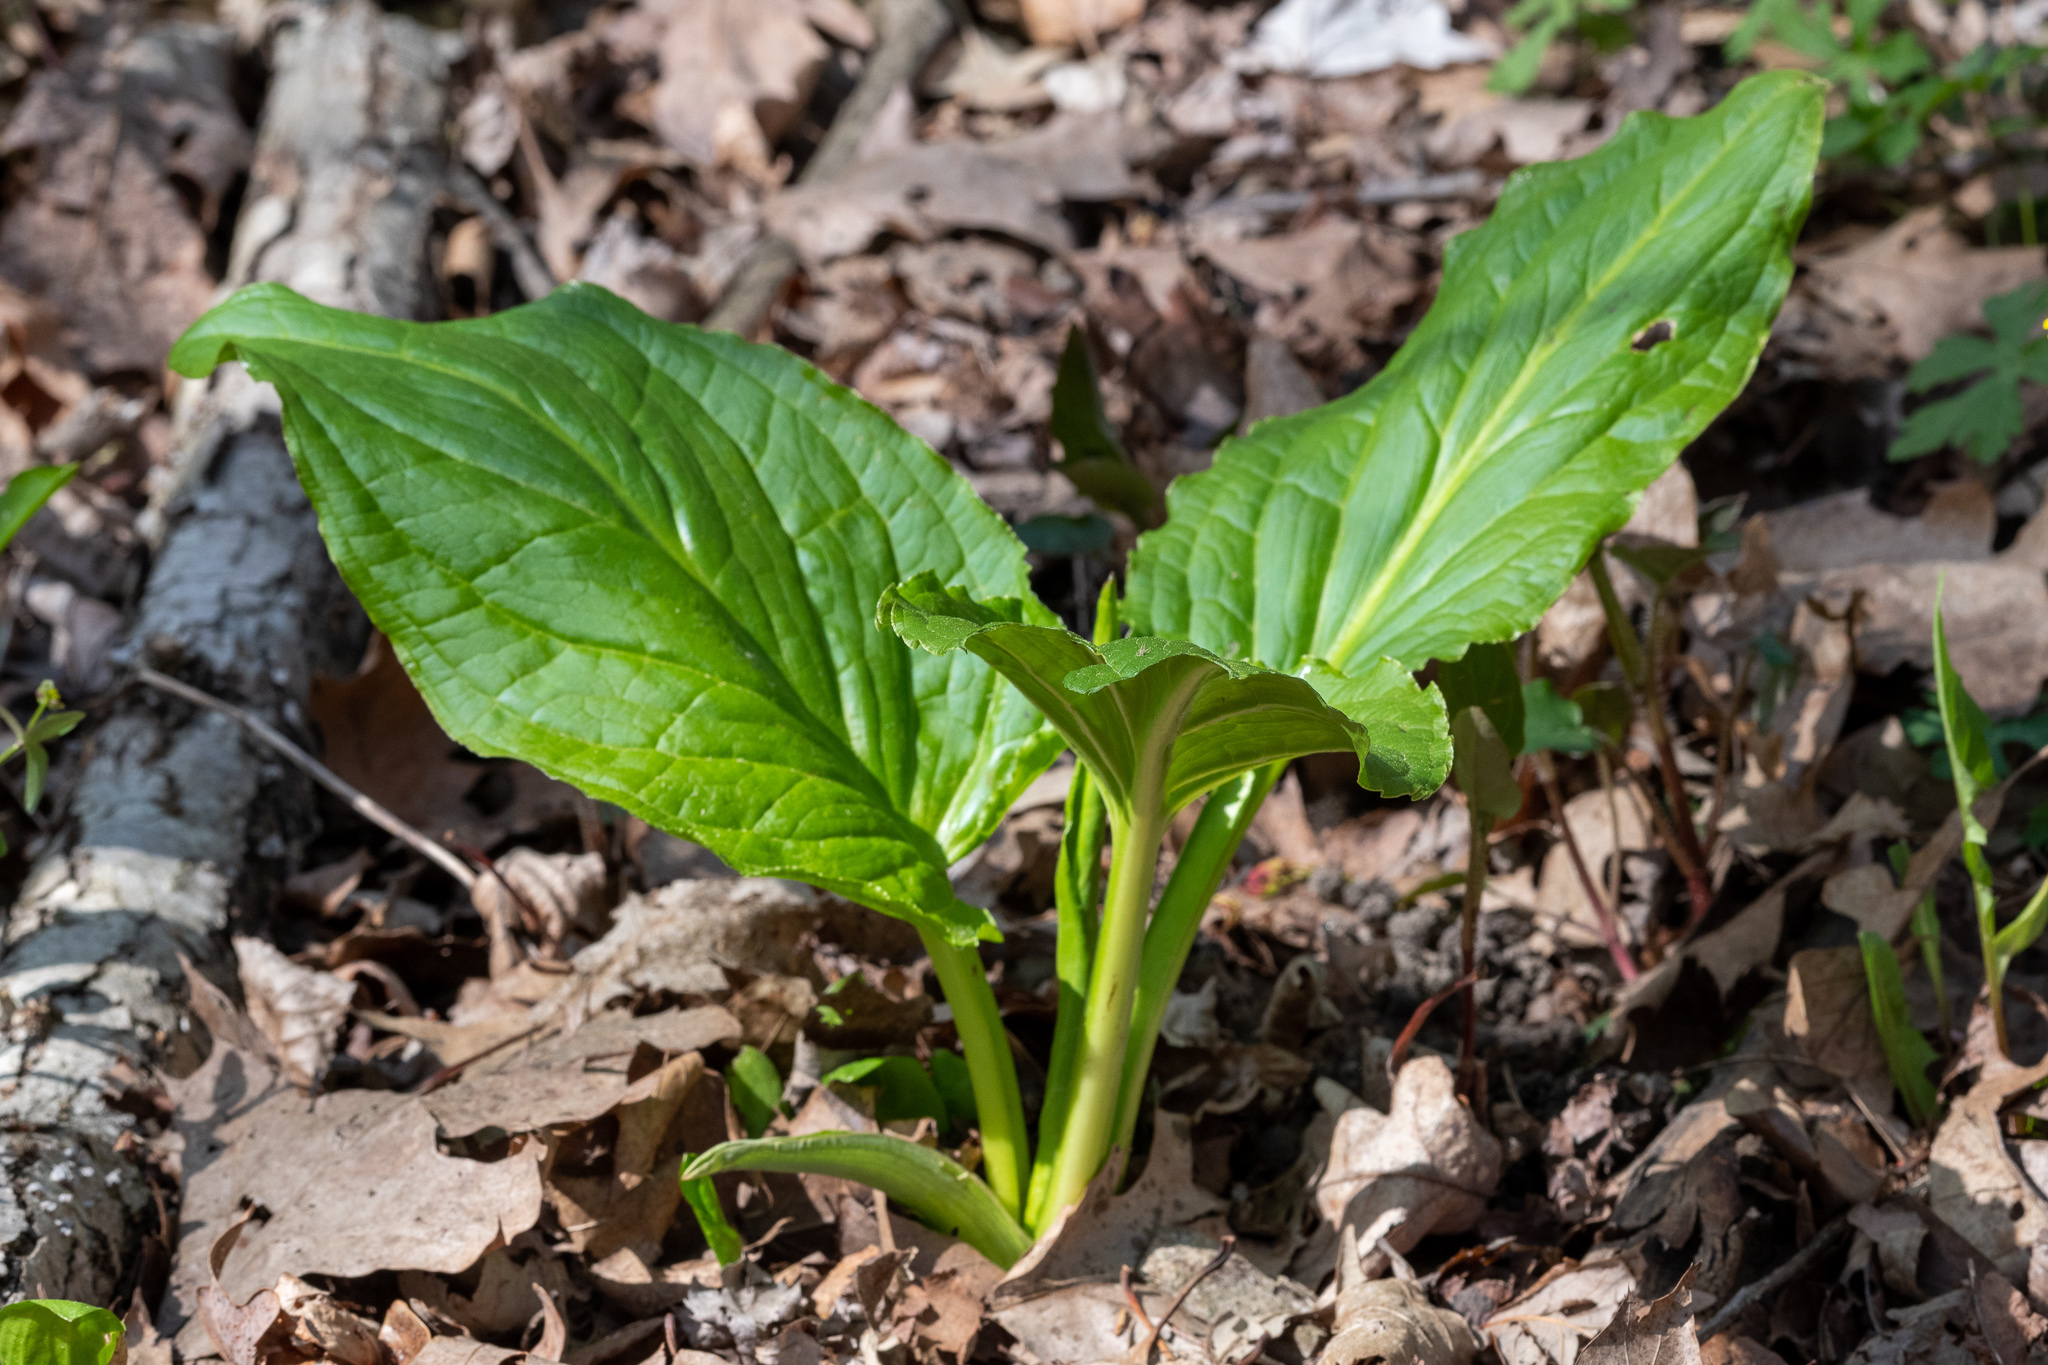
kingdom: Plantae
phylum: Tracheophyta
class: Liliopsida
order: Alismatales
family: Araceae
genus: Symplocarpus
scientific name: Symplocarpus foetidus
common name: Eastern skunk cabbage
